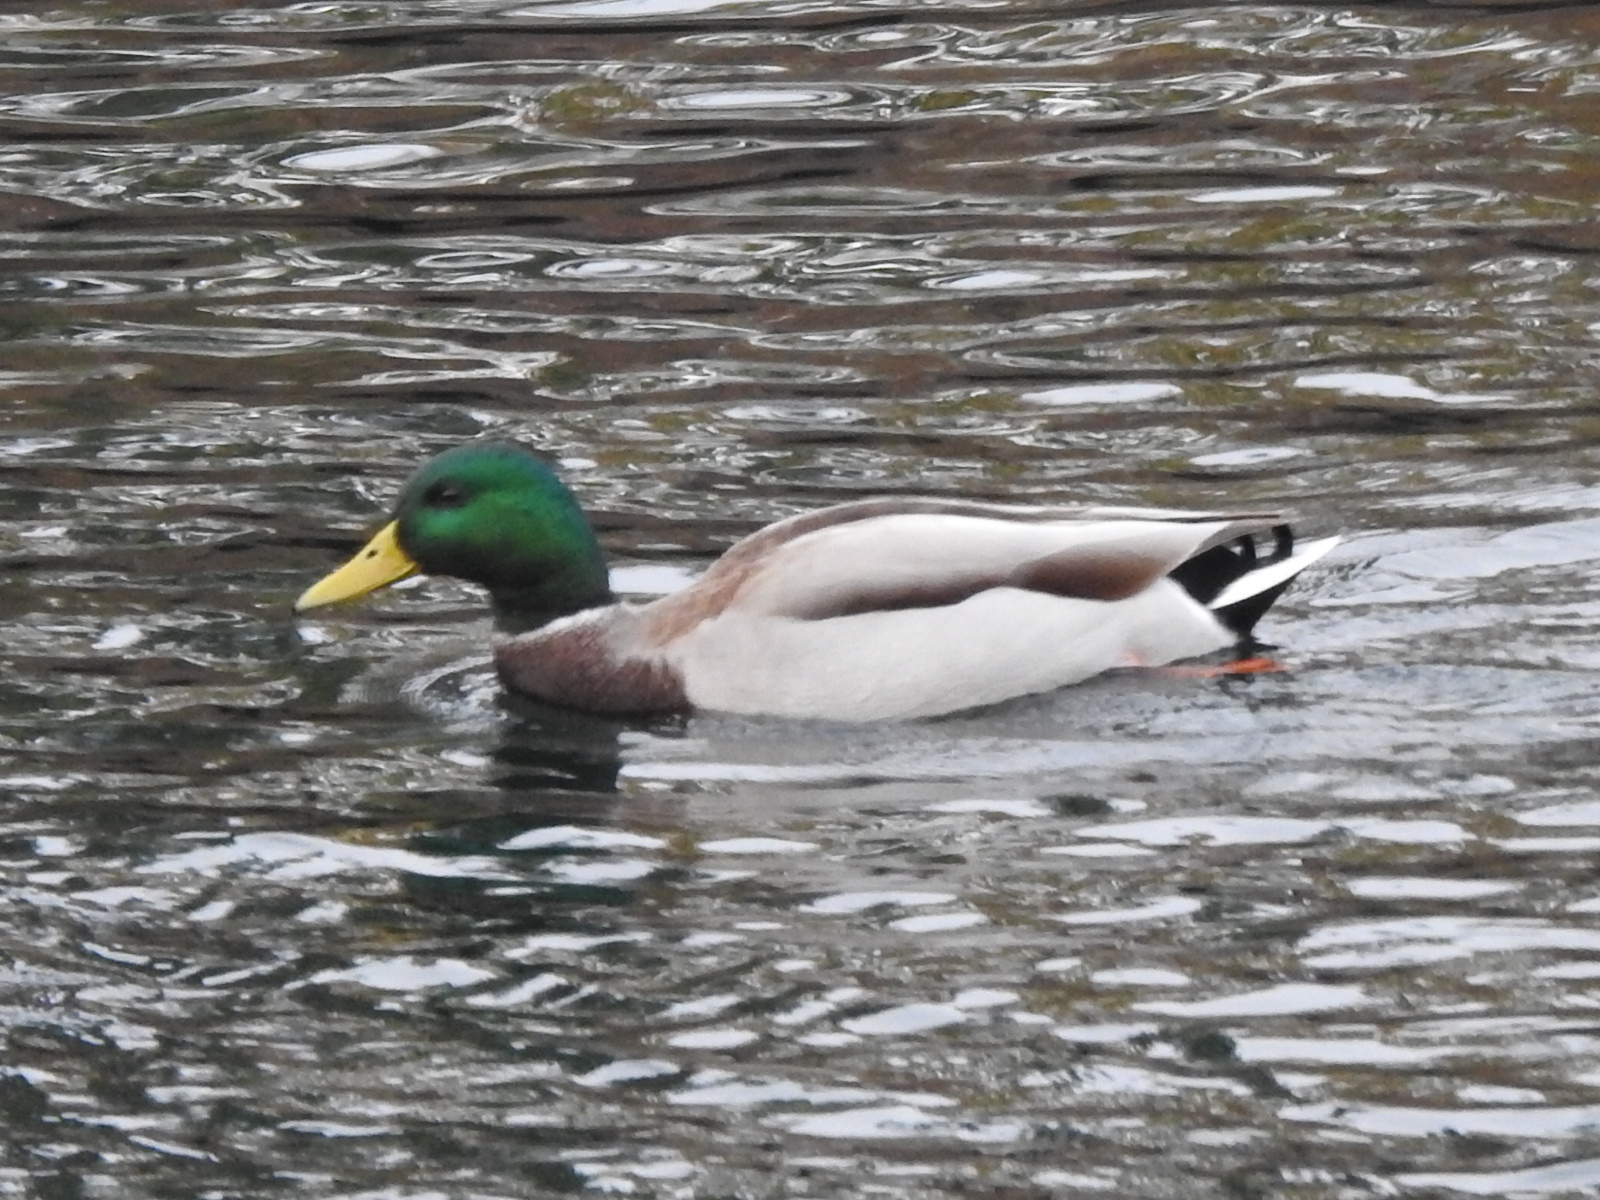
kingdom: Animalia
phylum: Chordata
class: Aves
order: Anseriformes
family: Anatidae
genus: Anas
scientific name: Anas platyrhynchos
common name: Mallard
